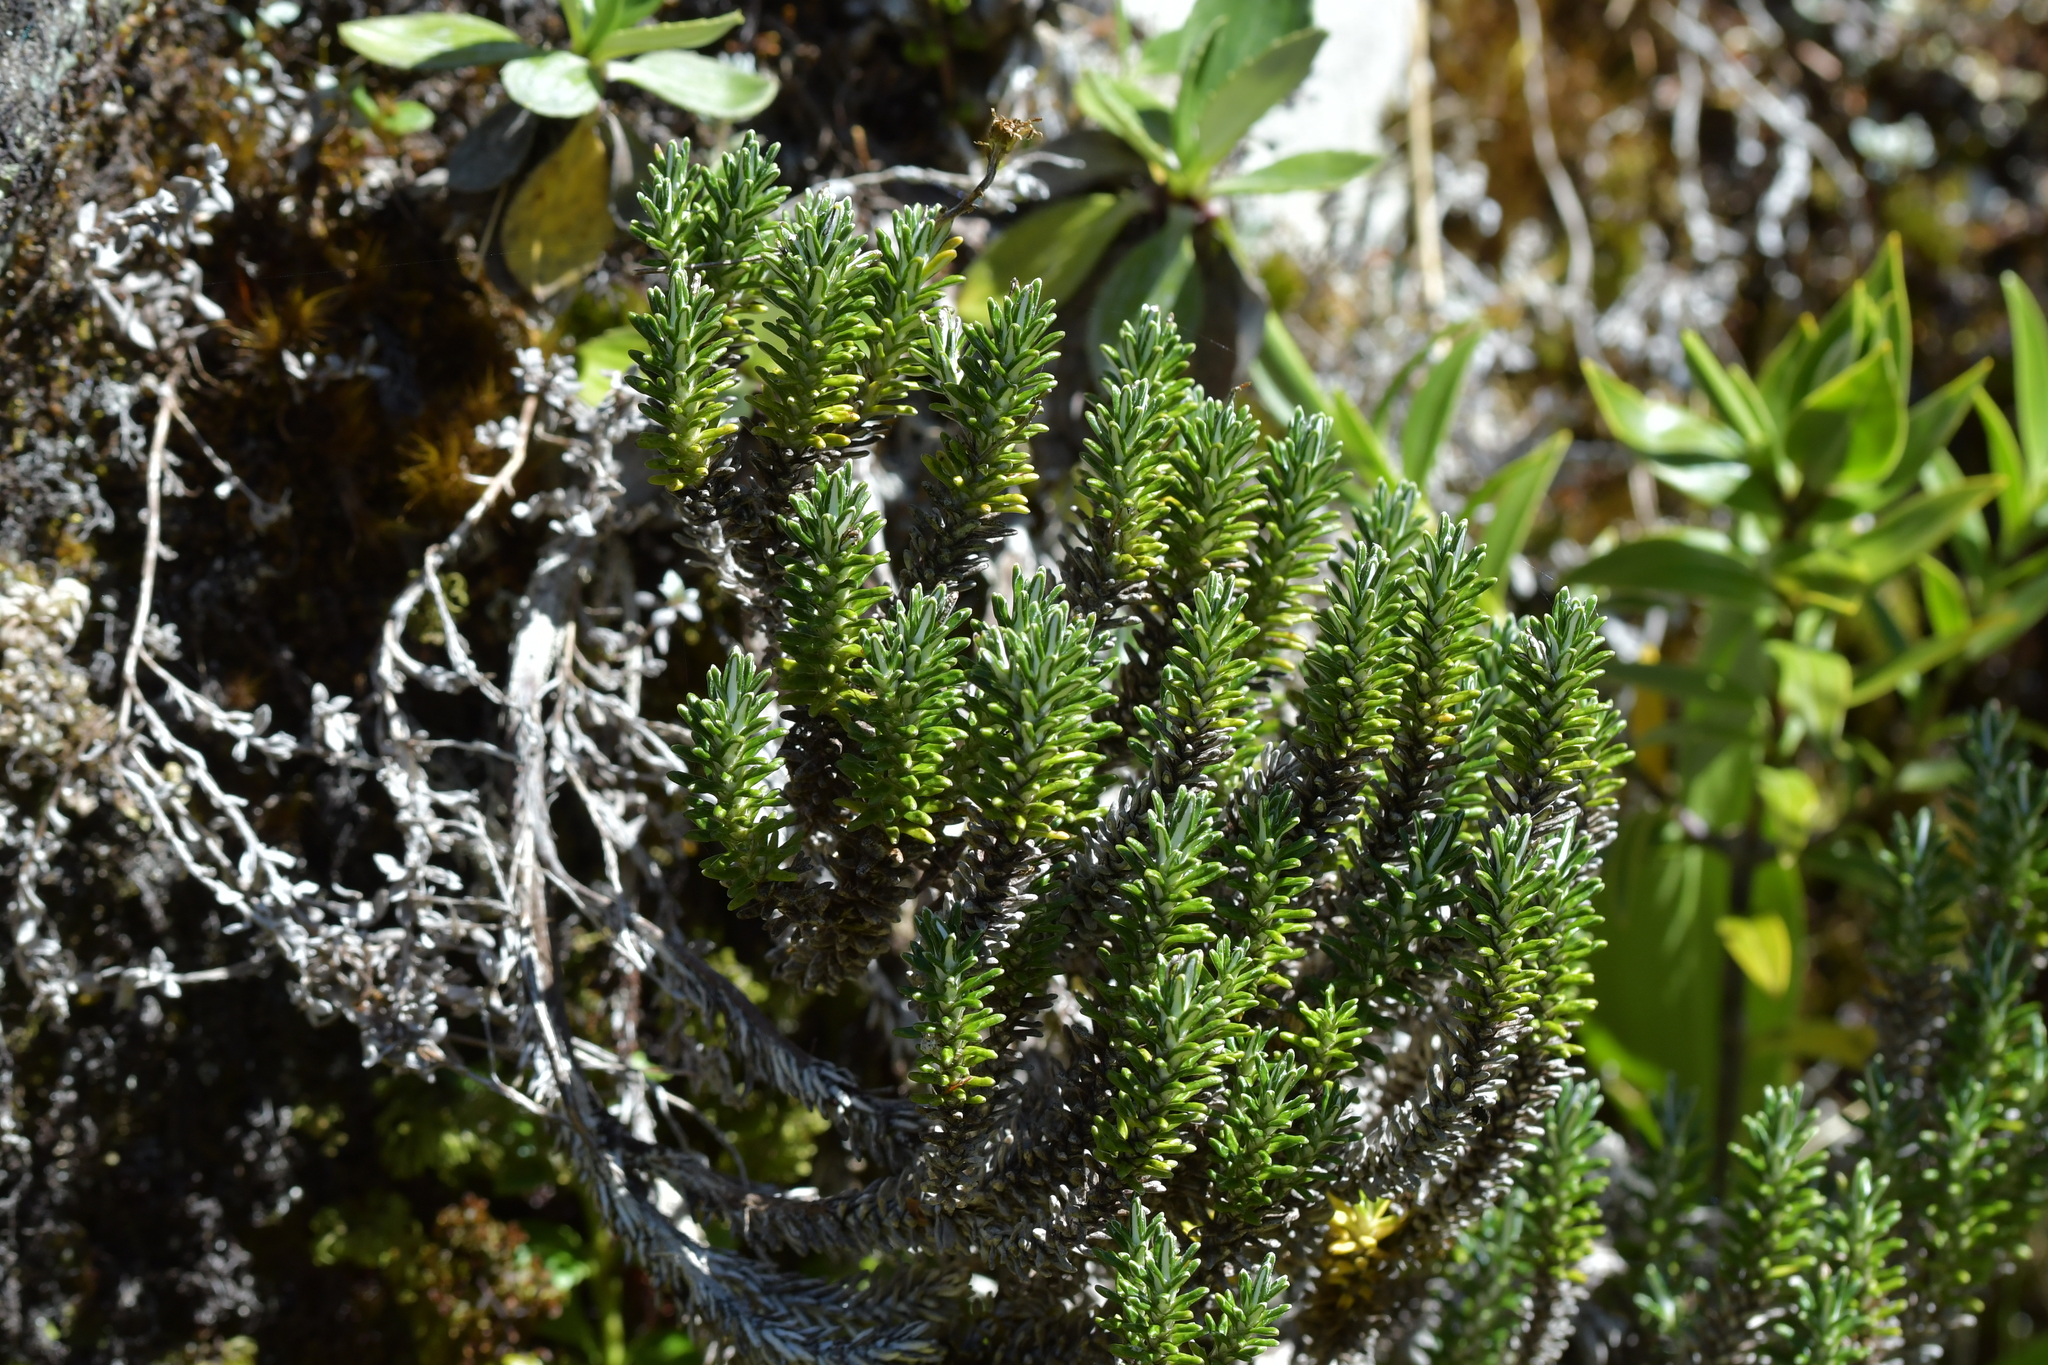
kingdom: Plantae
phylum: Tracheophyta
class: Magnoliopsida
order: Asterales
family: Asteraceae
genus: Celmisia
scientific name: Celmisia ramulosa
